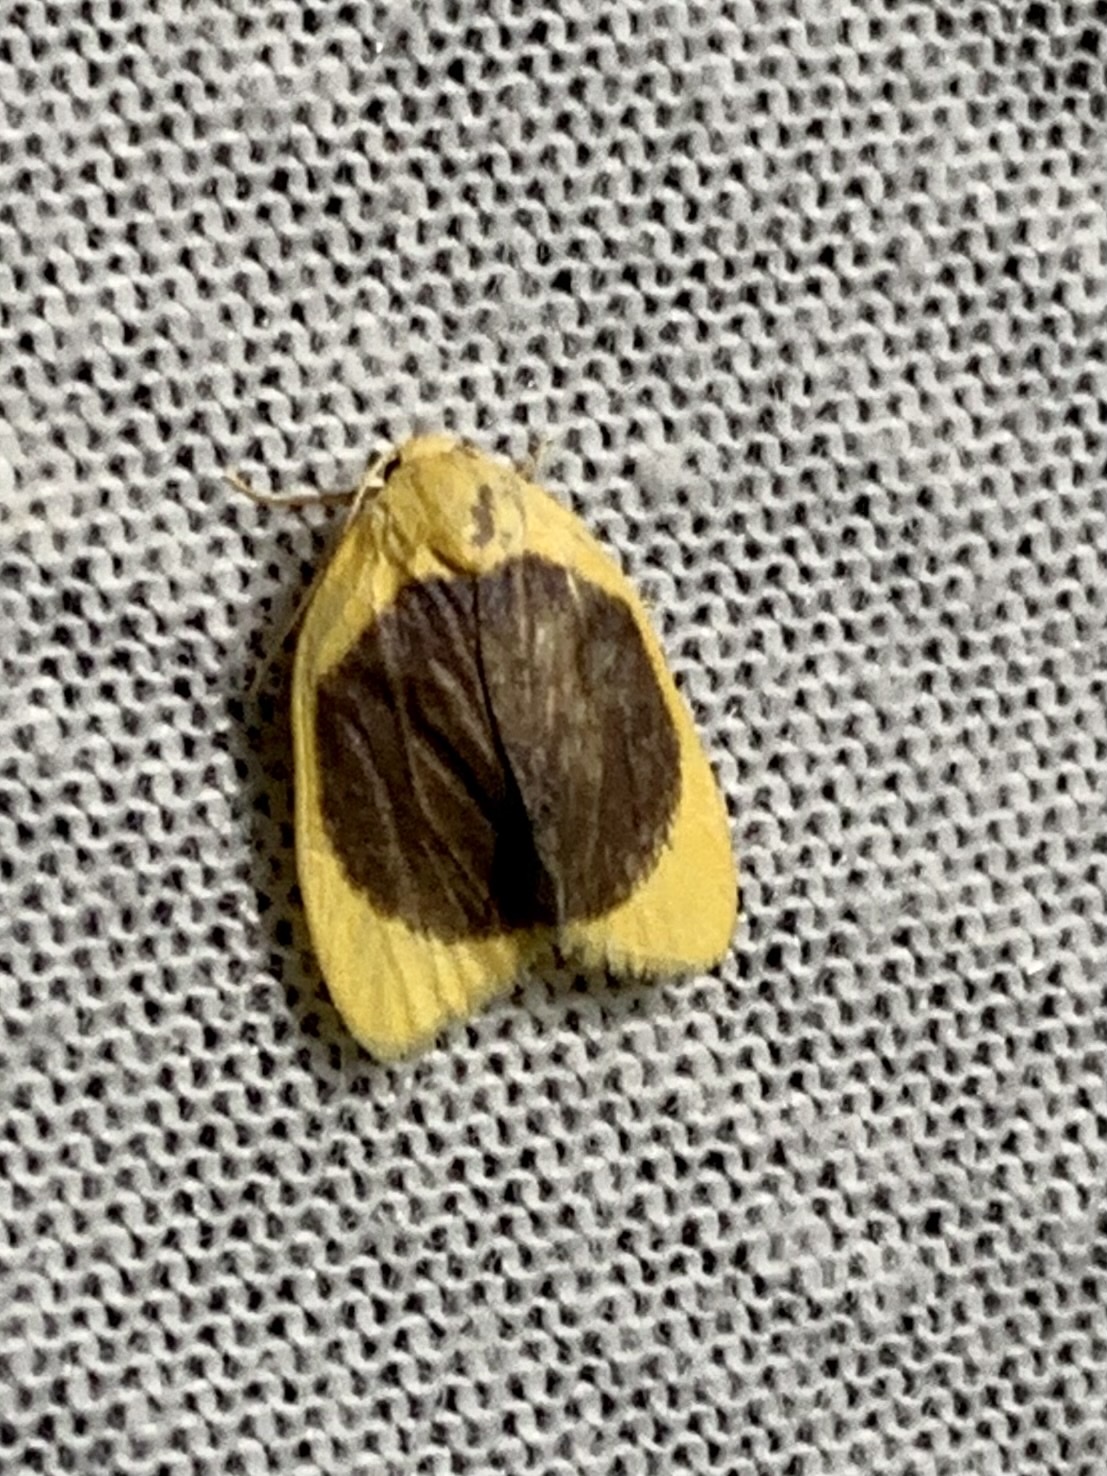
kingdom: Animalia
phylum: Arthropoda
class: Insecta
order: Lepidoptera
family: Erebidae
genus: Pronola
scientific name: Pronola magniplaga
